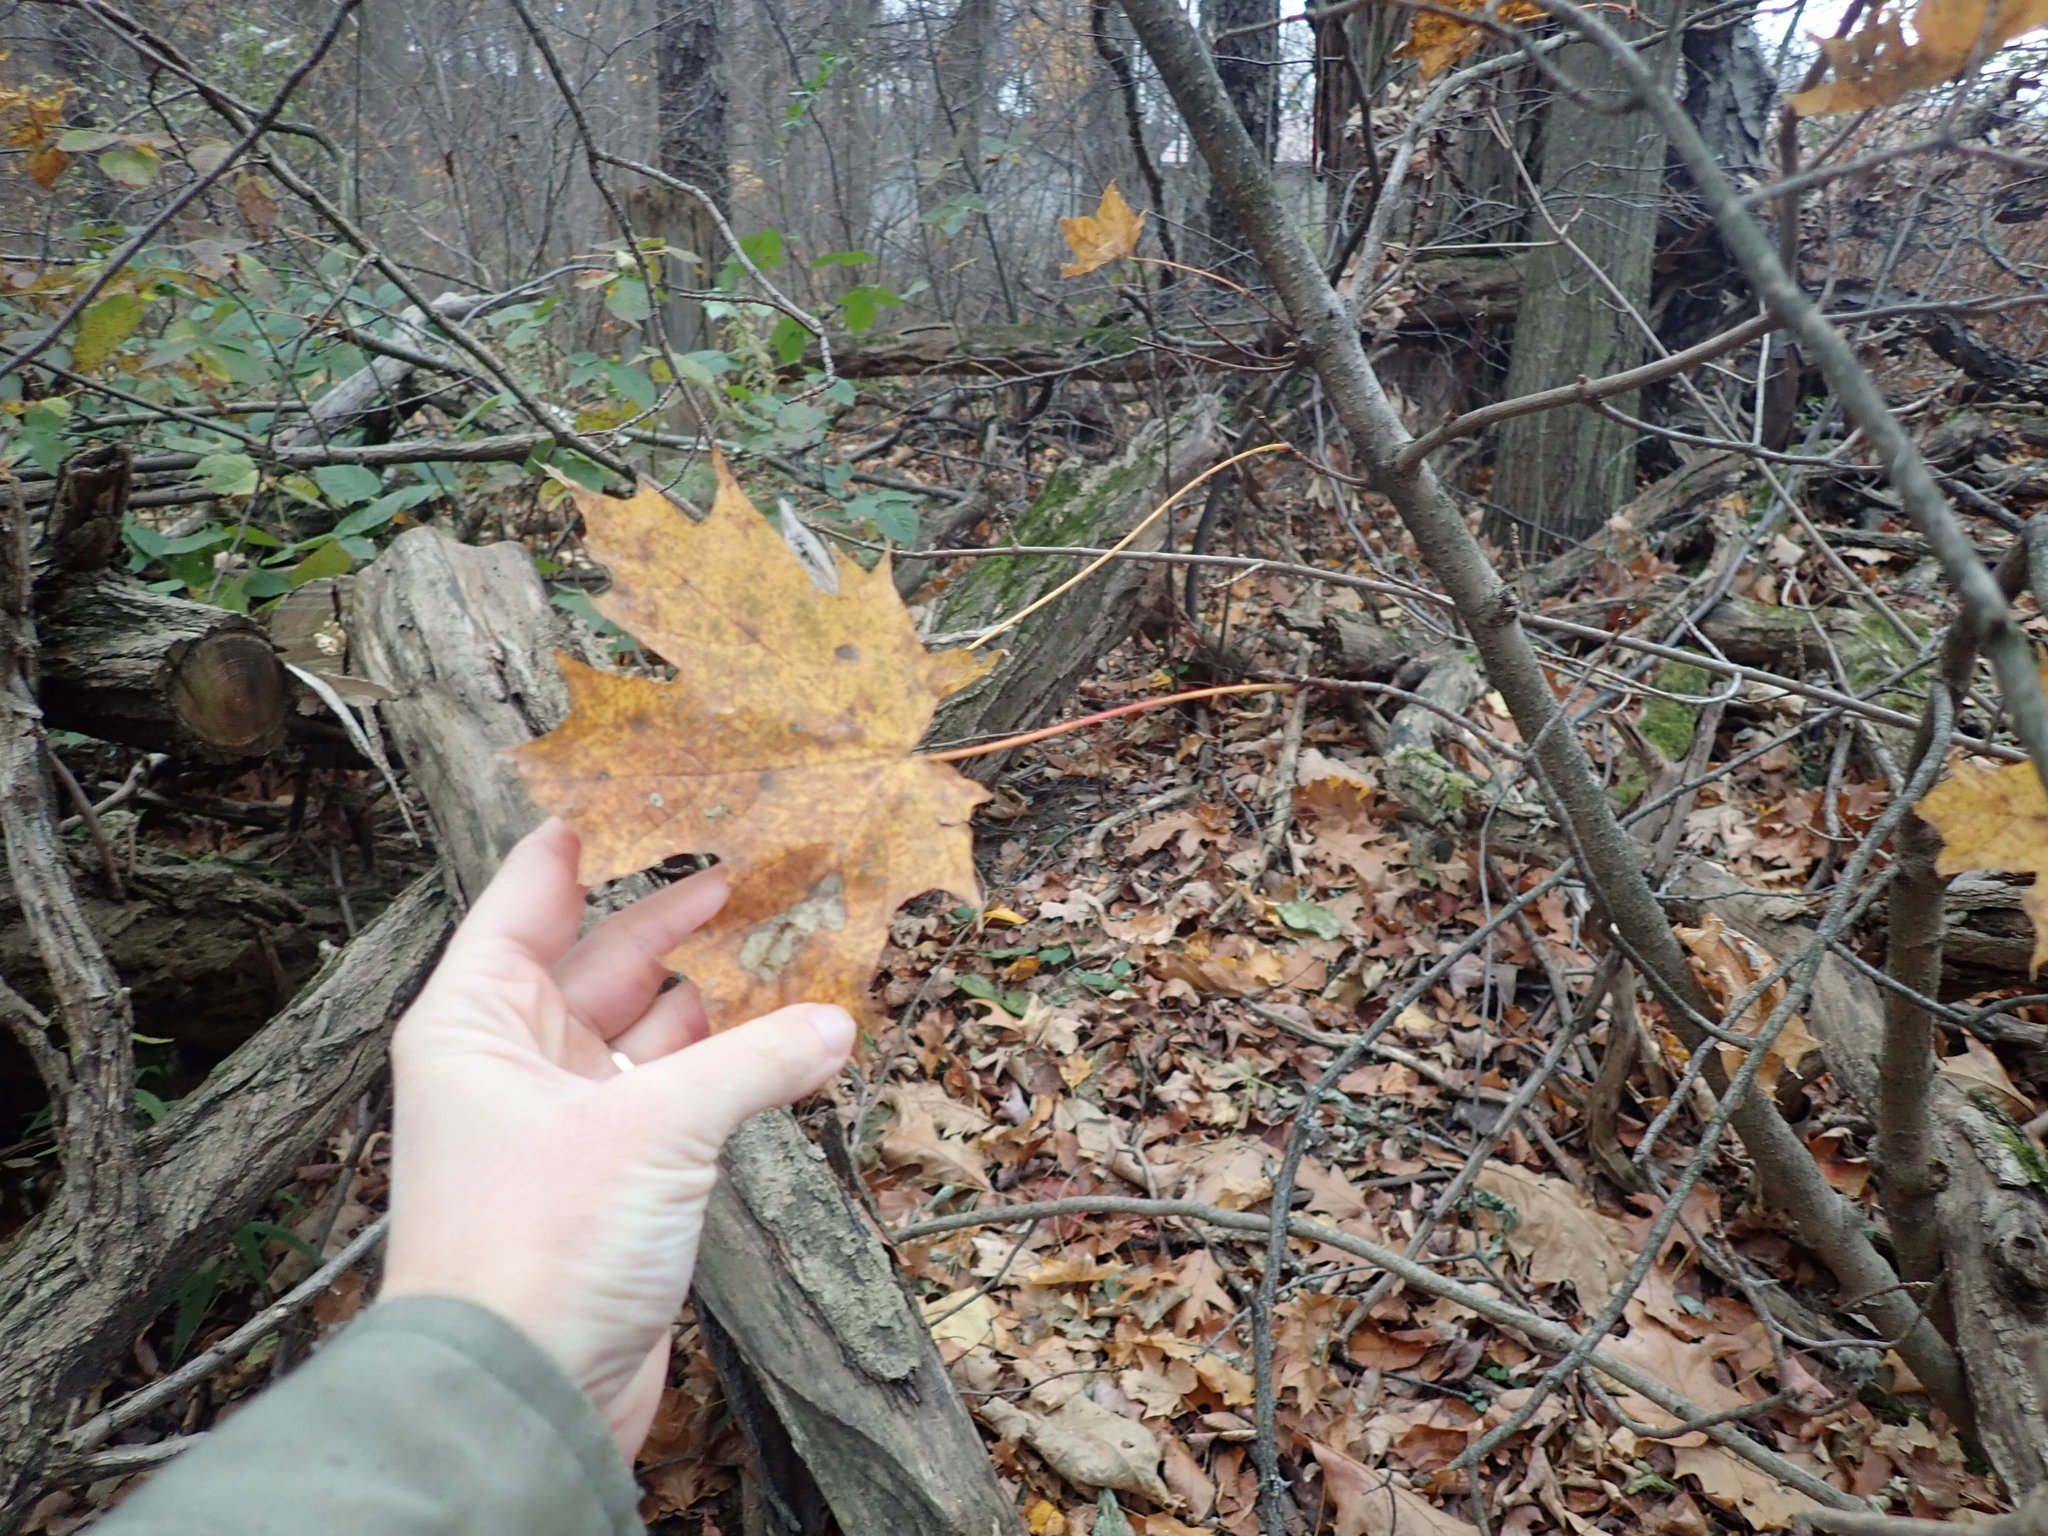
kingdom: Plantae
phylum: Tracheophyta
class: Magnoliopsida
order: Sapindales
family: Sapindaceae
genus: Acer
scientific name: Acer saccharum
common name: Sugar maple
